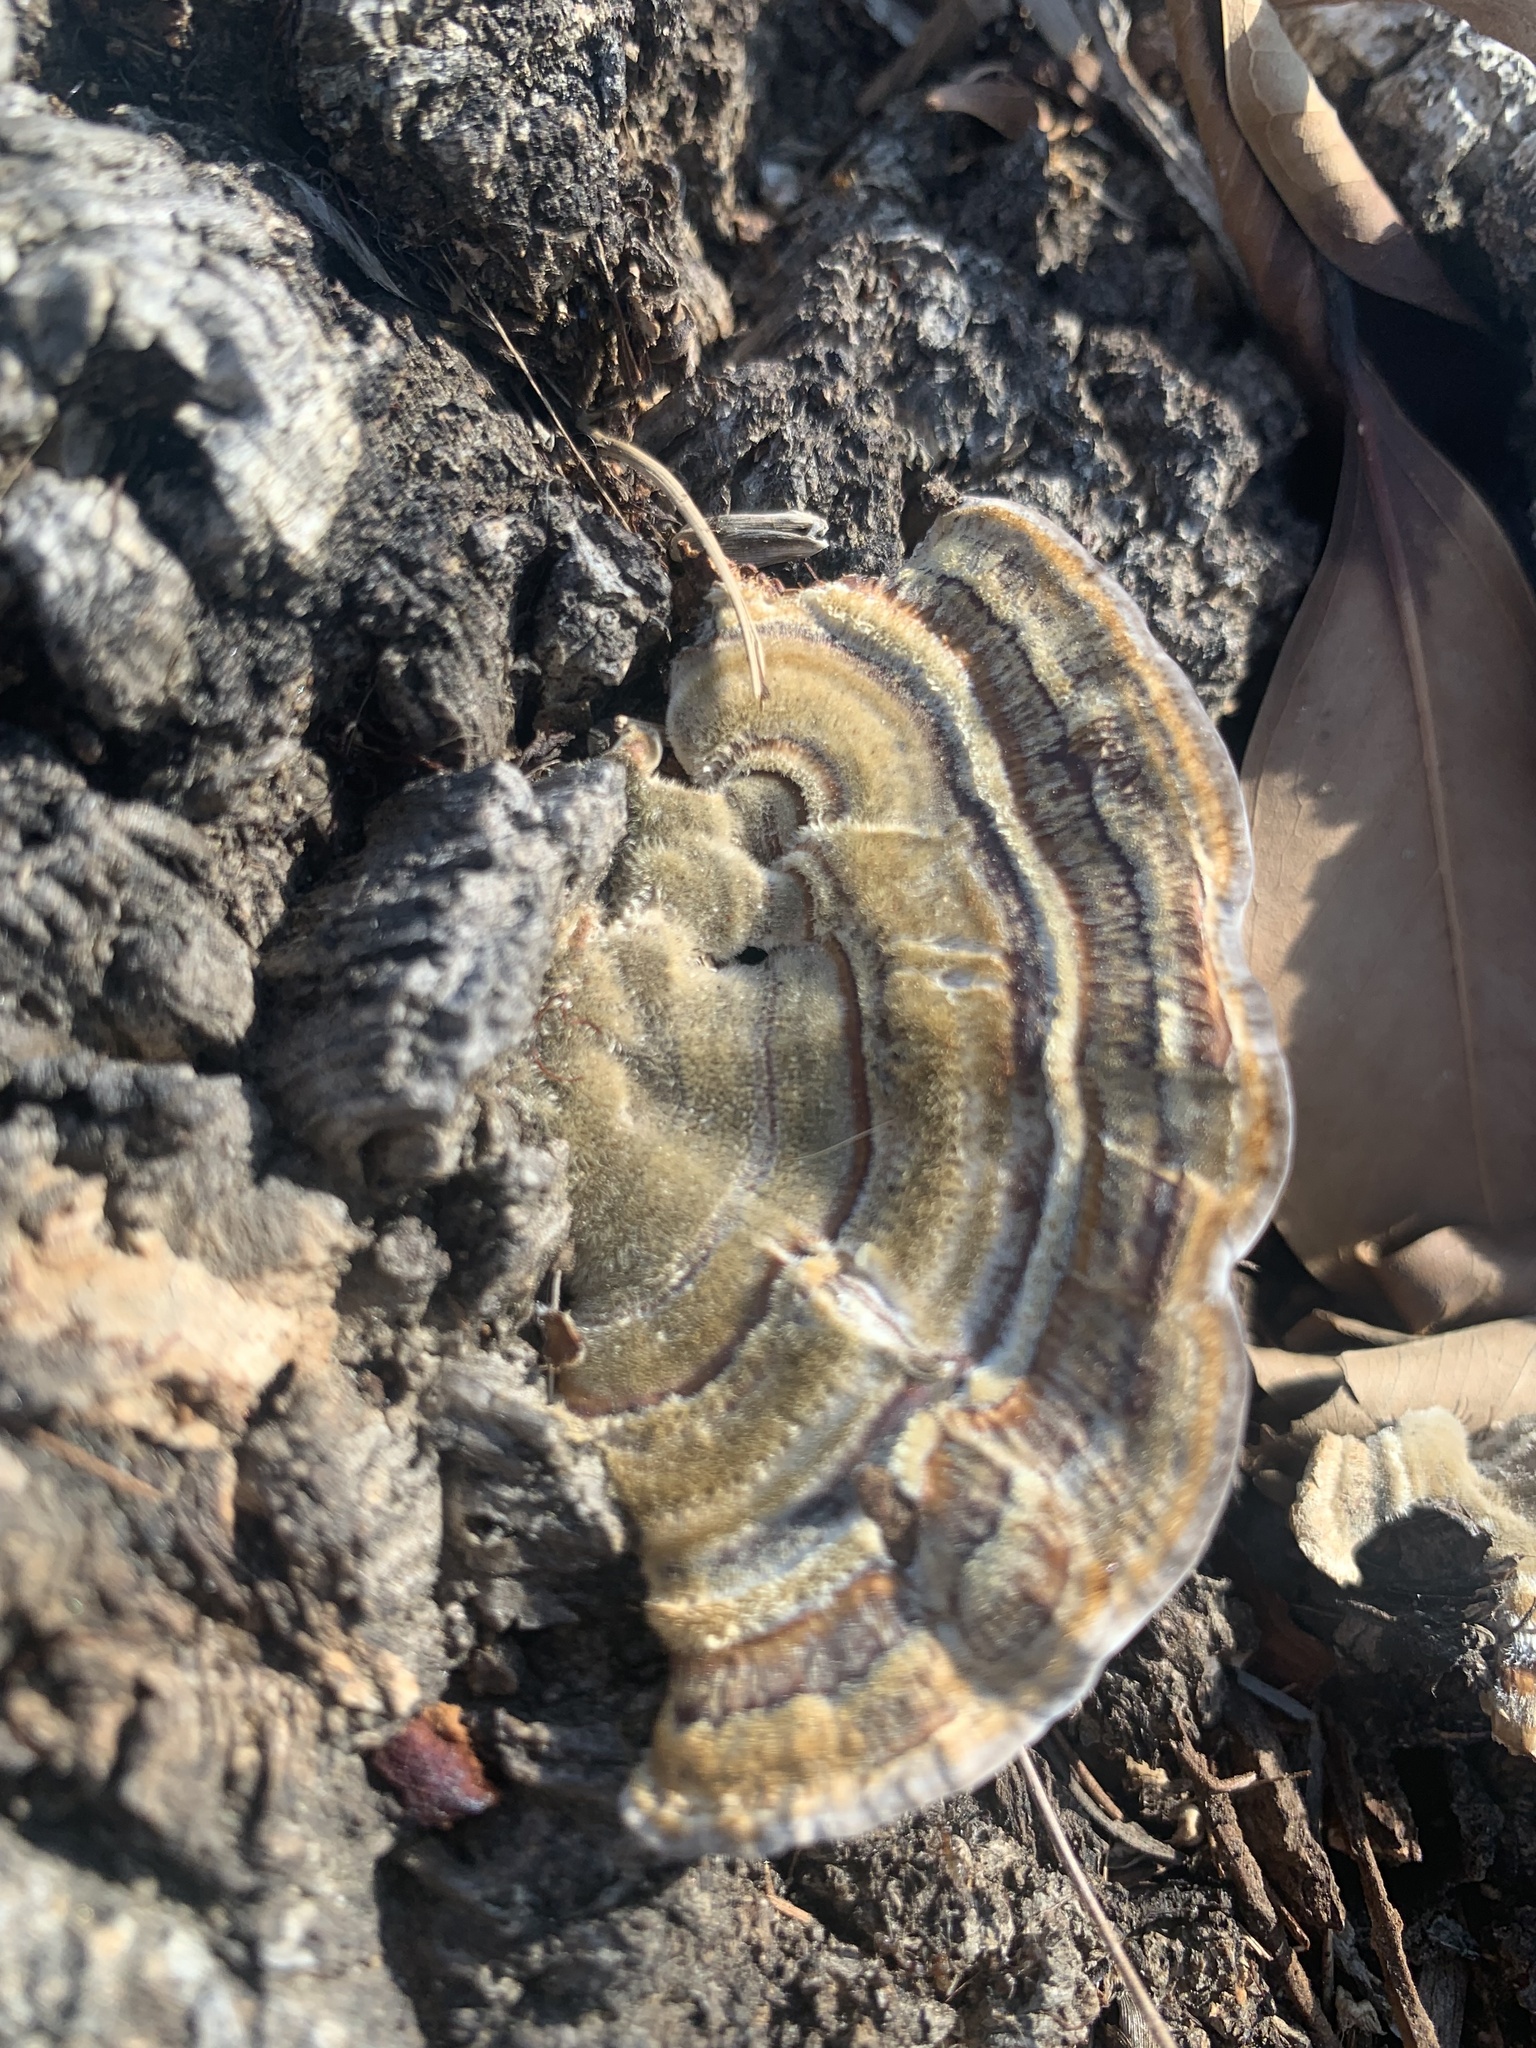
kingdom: Fungi
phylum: Basidiomycota
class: Agaricomycetes
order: Polyporales
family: Polyporaceae
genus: Trametes
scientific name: Trametes versicolor
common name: Turkeytail
